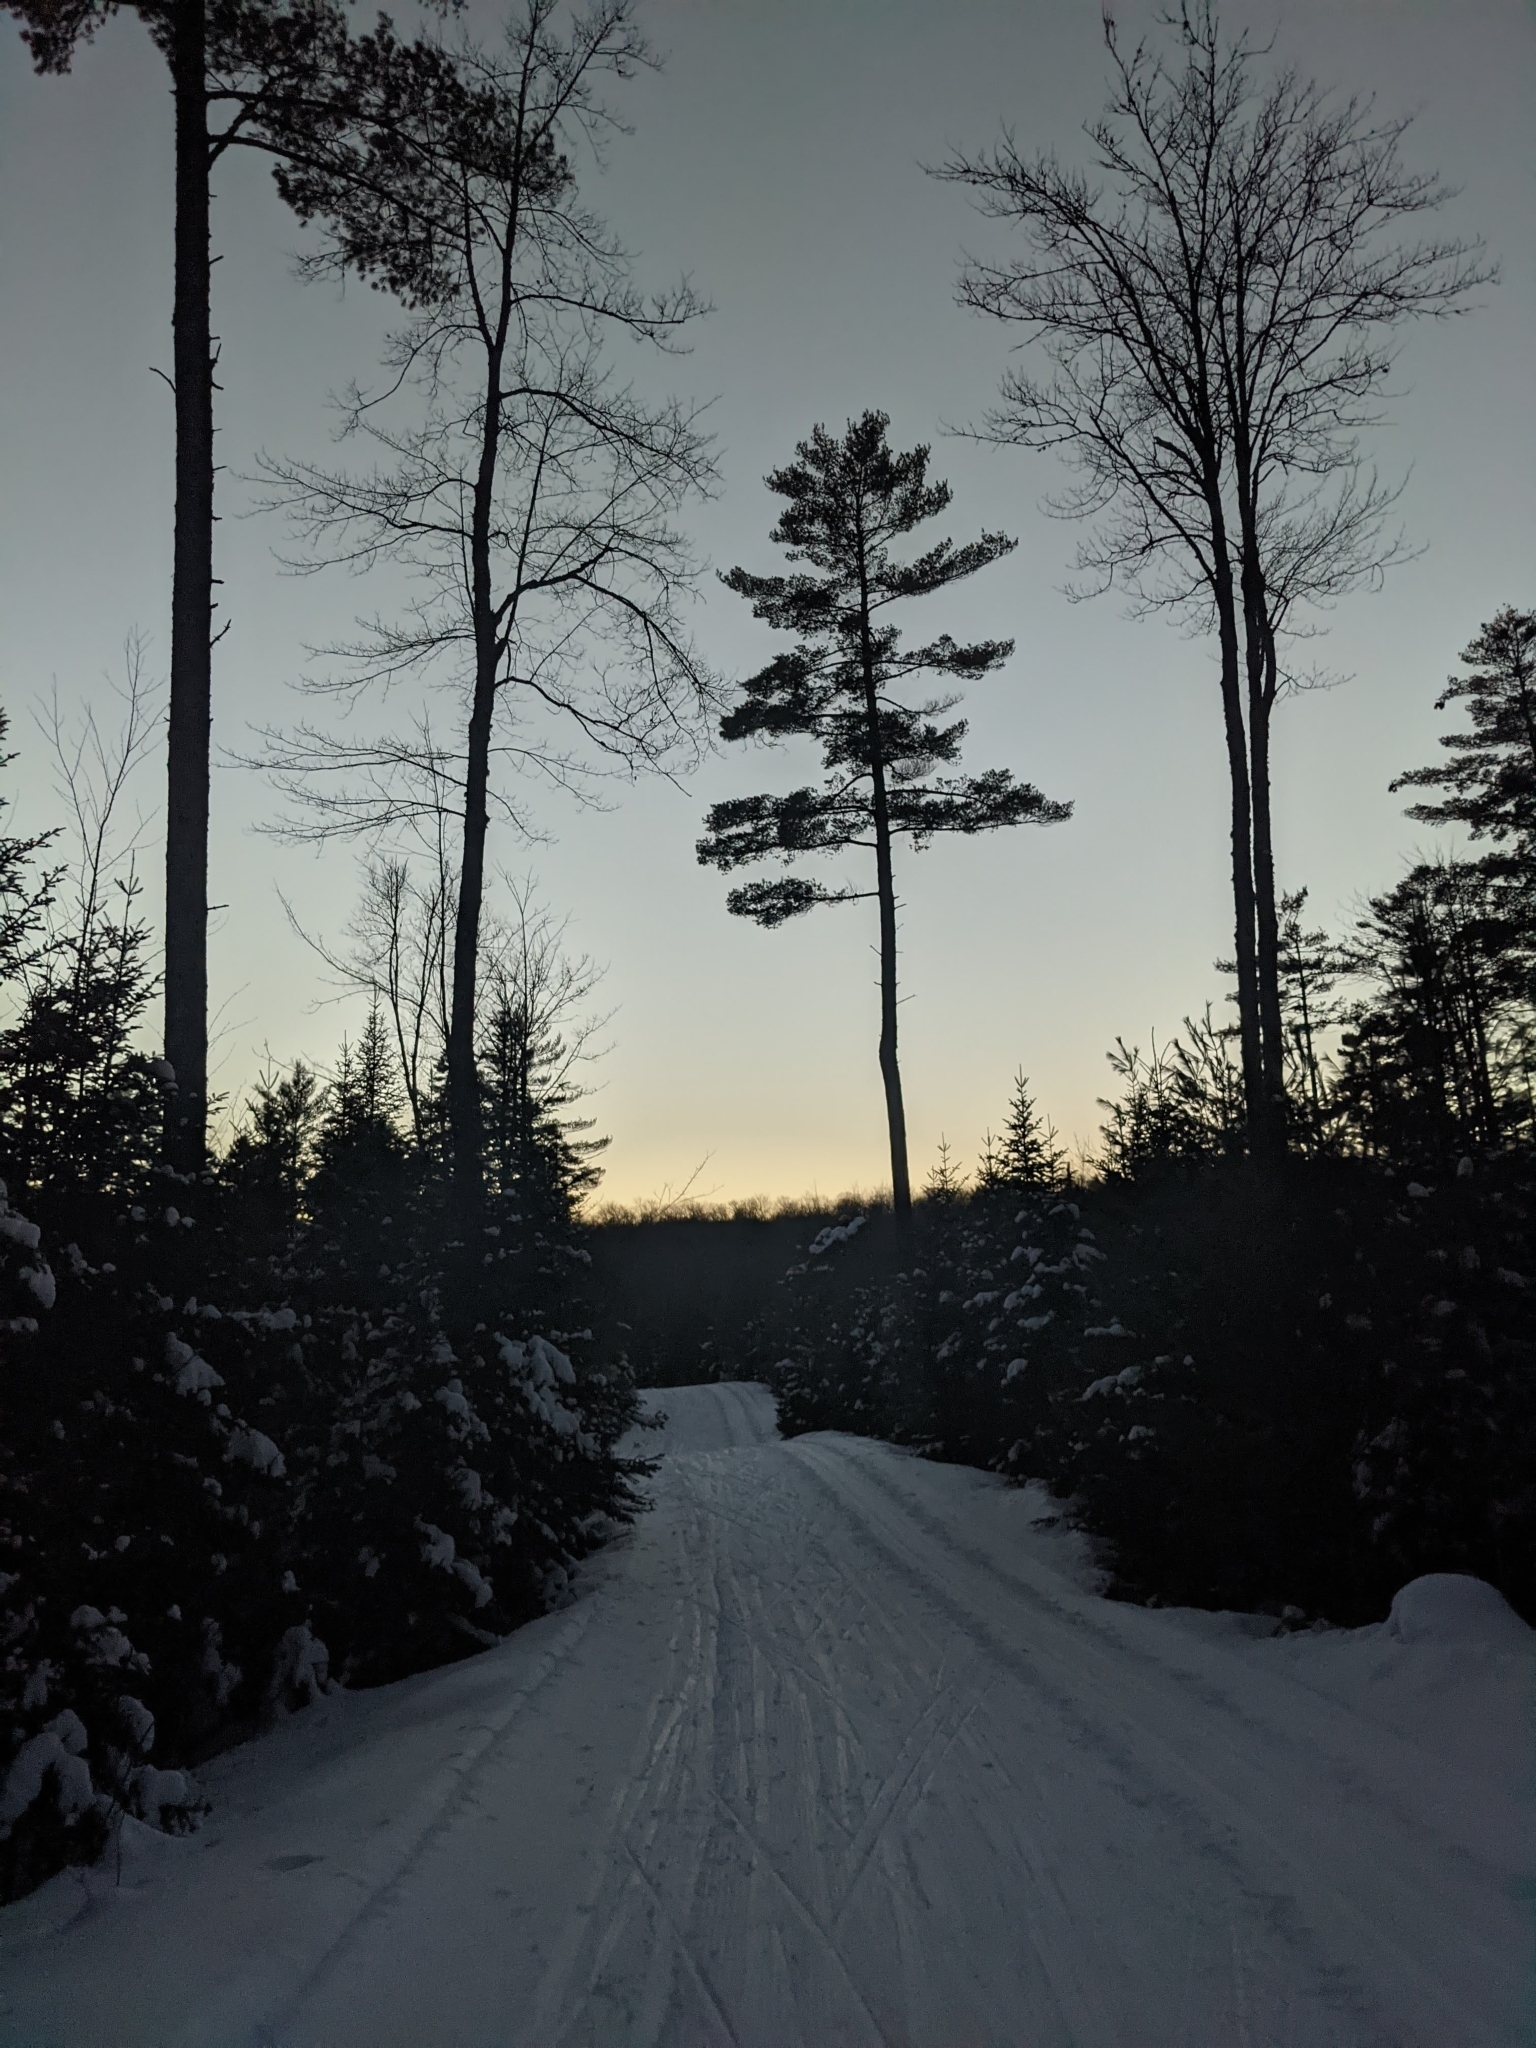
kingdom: Plantae
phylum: Tracheophyta
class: Pinopsida
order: Pinales
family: Pinaceae
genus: Pinus
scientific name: Pinus strobus
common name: Weymouth pine
